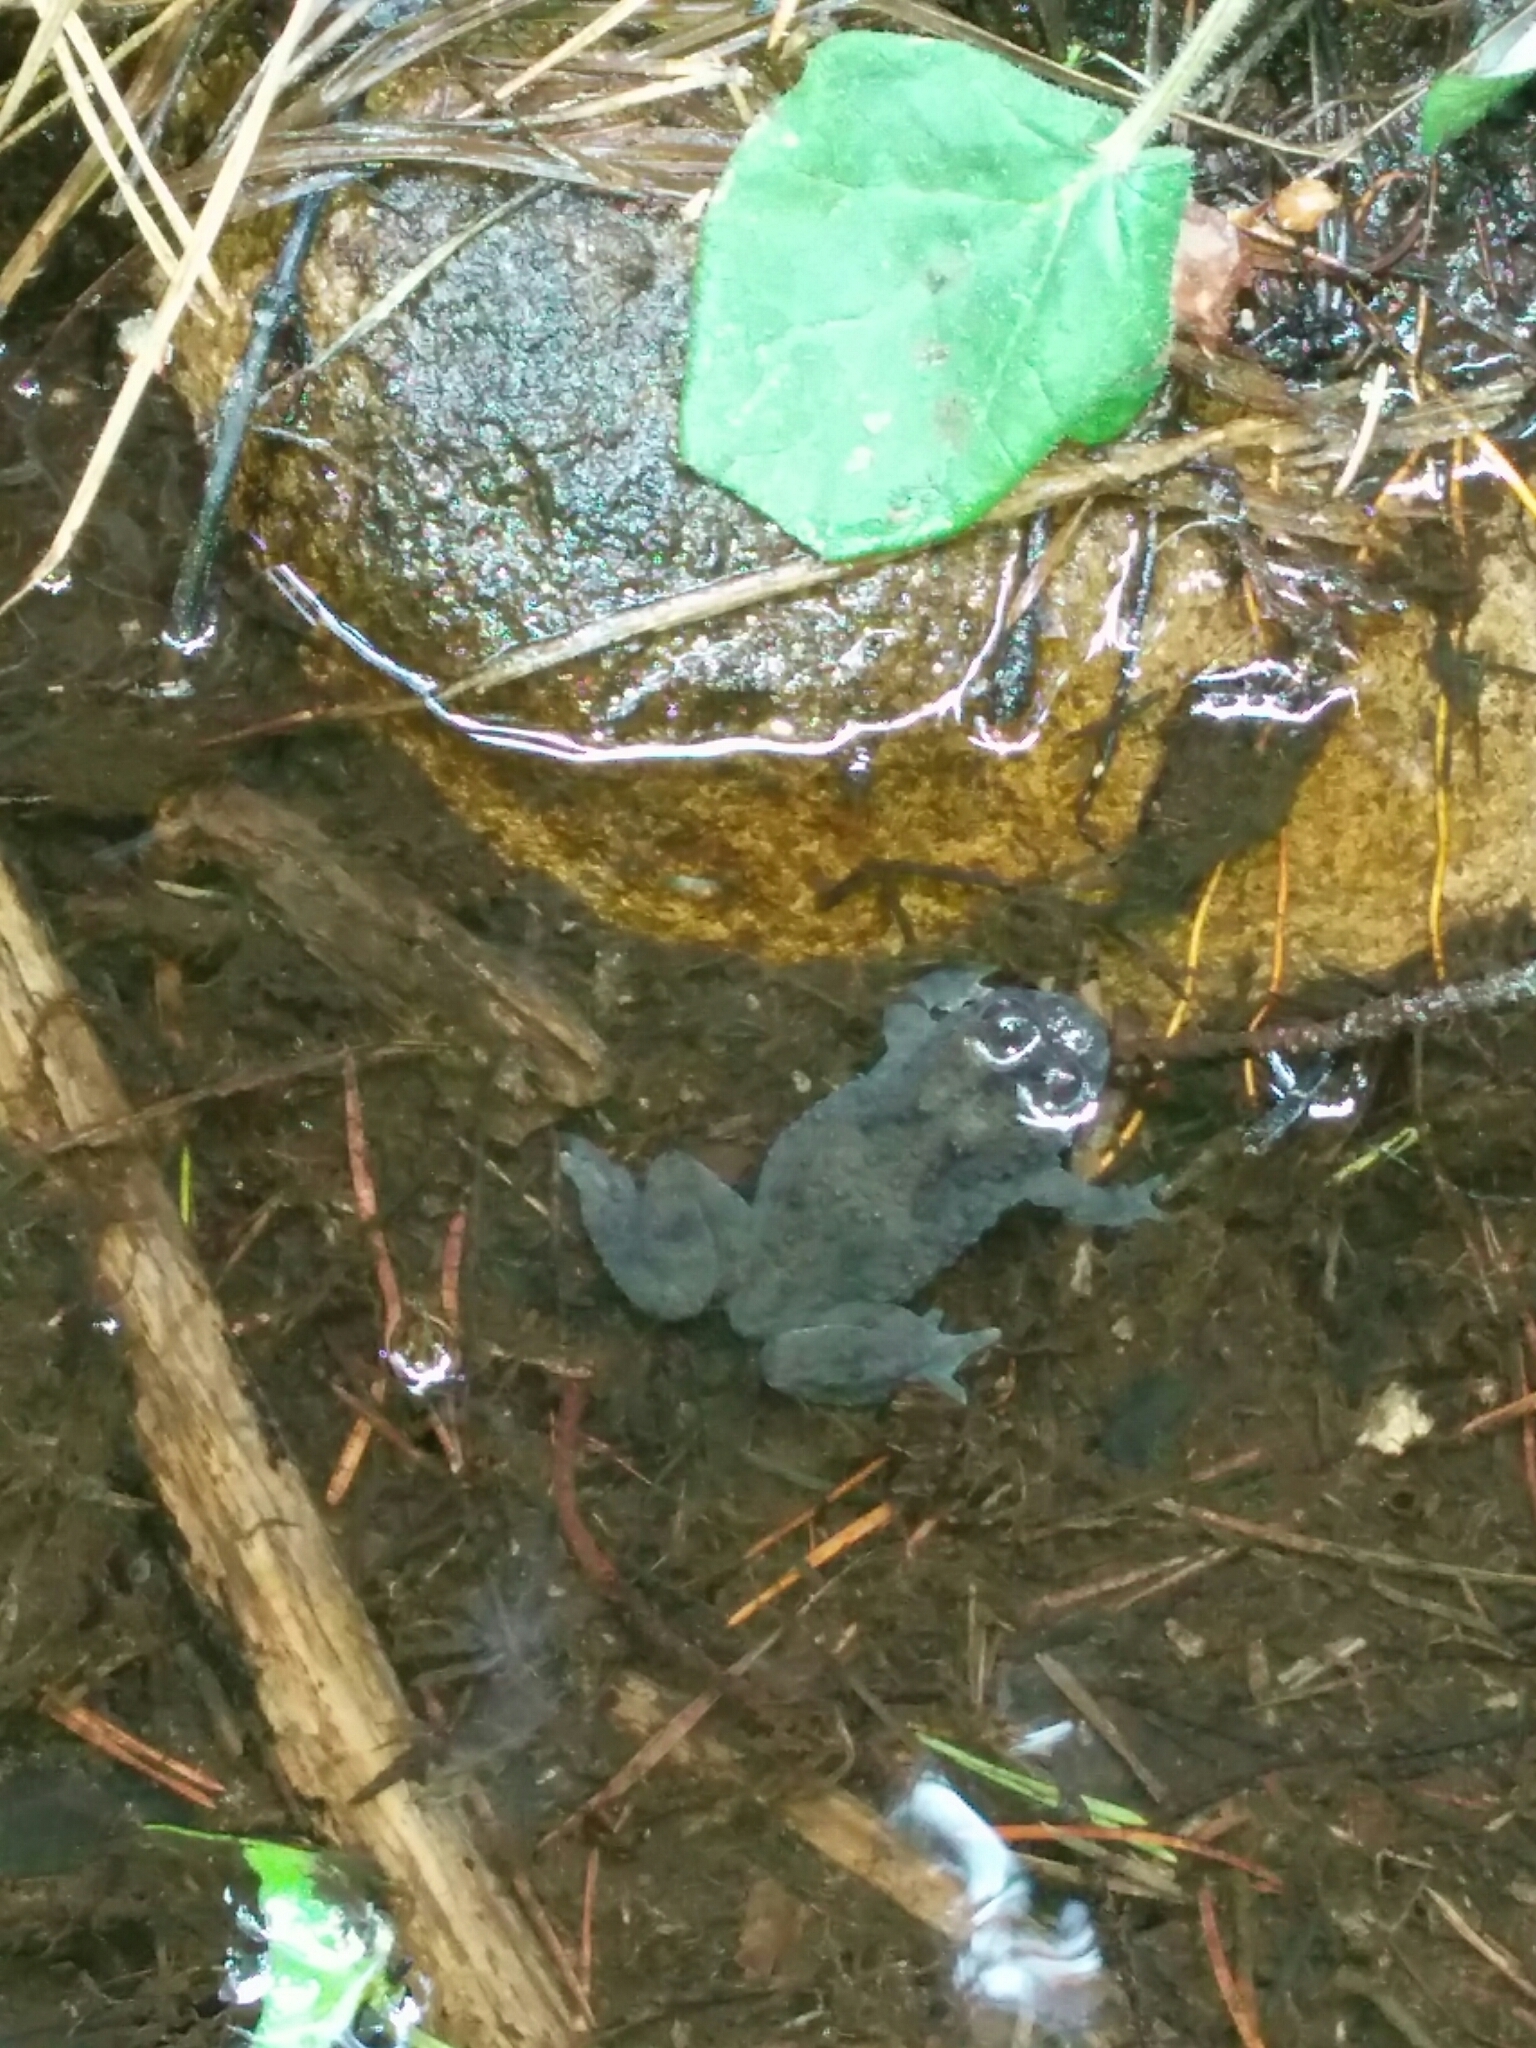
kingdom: Animalia
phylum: Chordata
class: Amphibia
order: Anura
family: Bombinatoridae
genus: Bombina
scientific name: Bombina variegata
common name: Yellow-bellied toad
